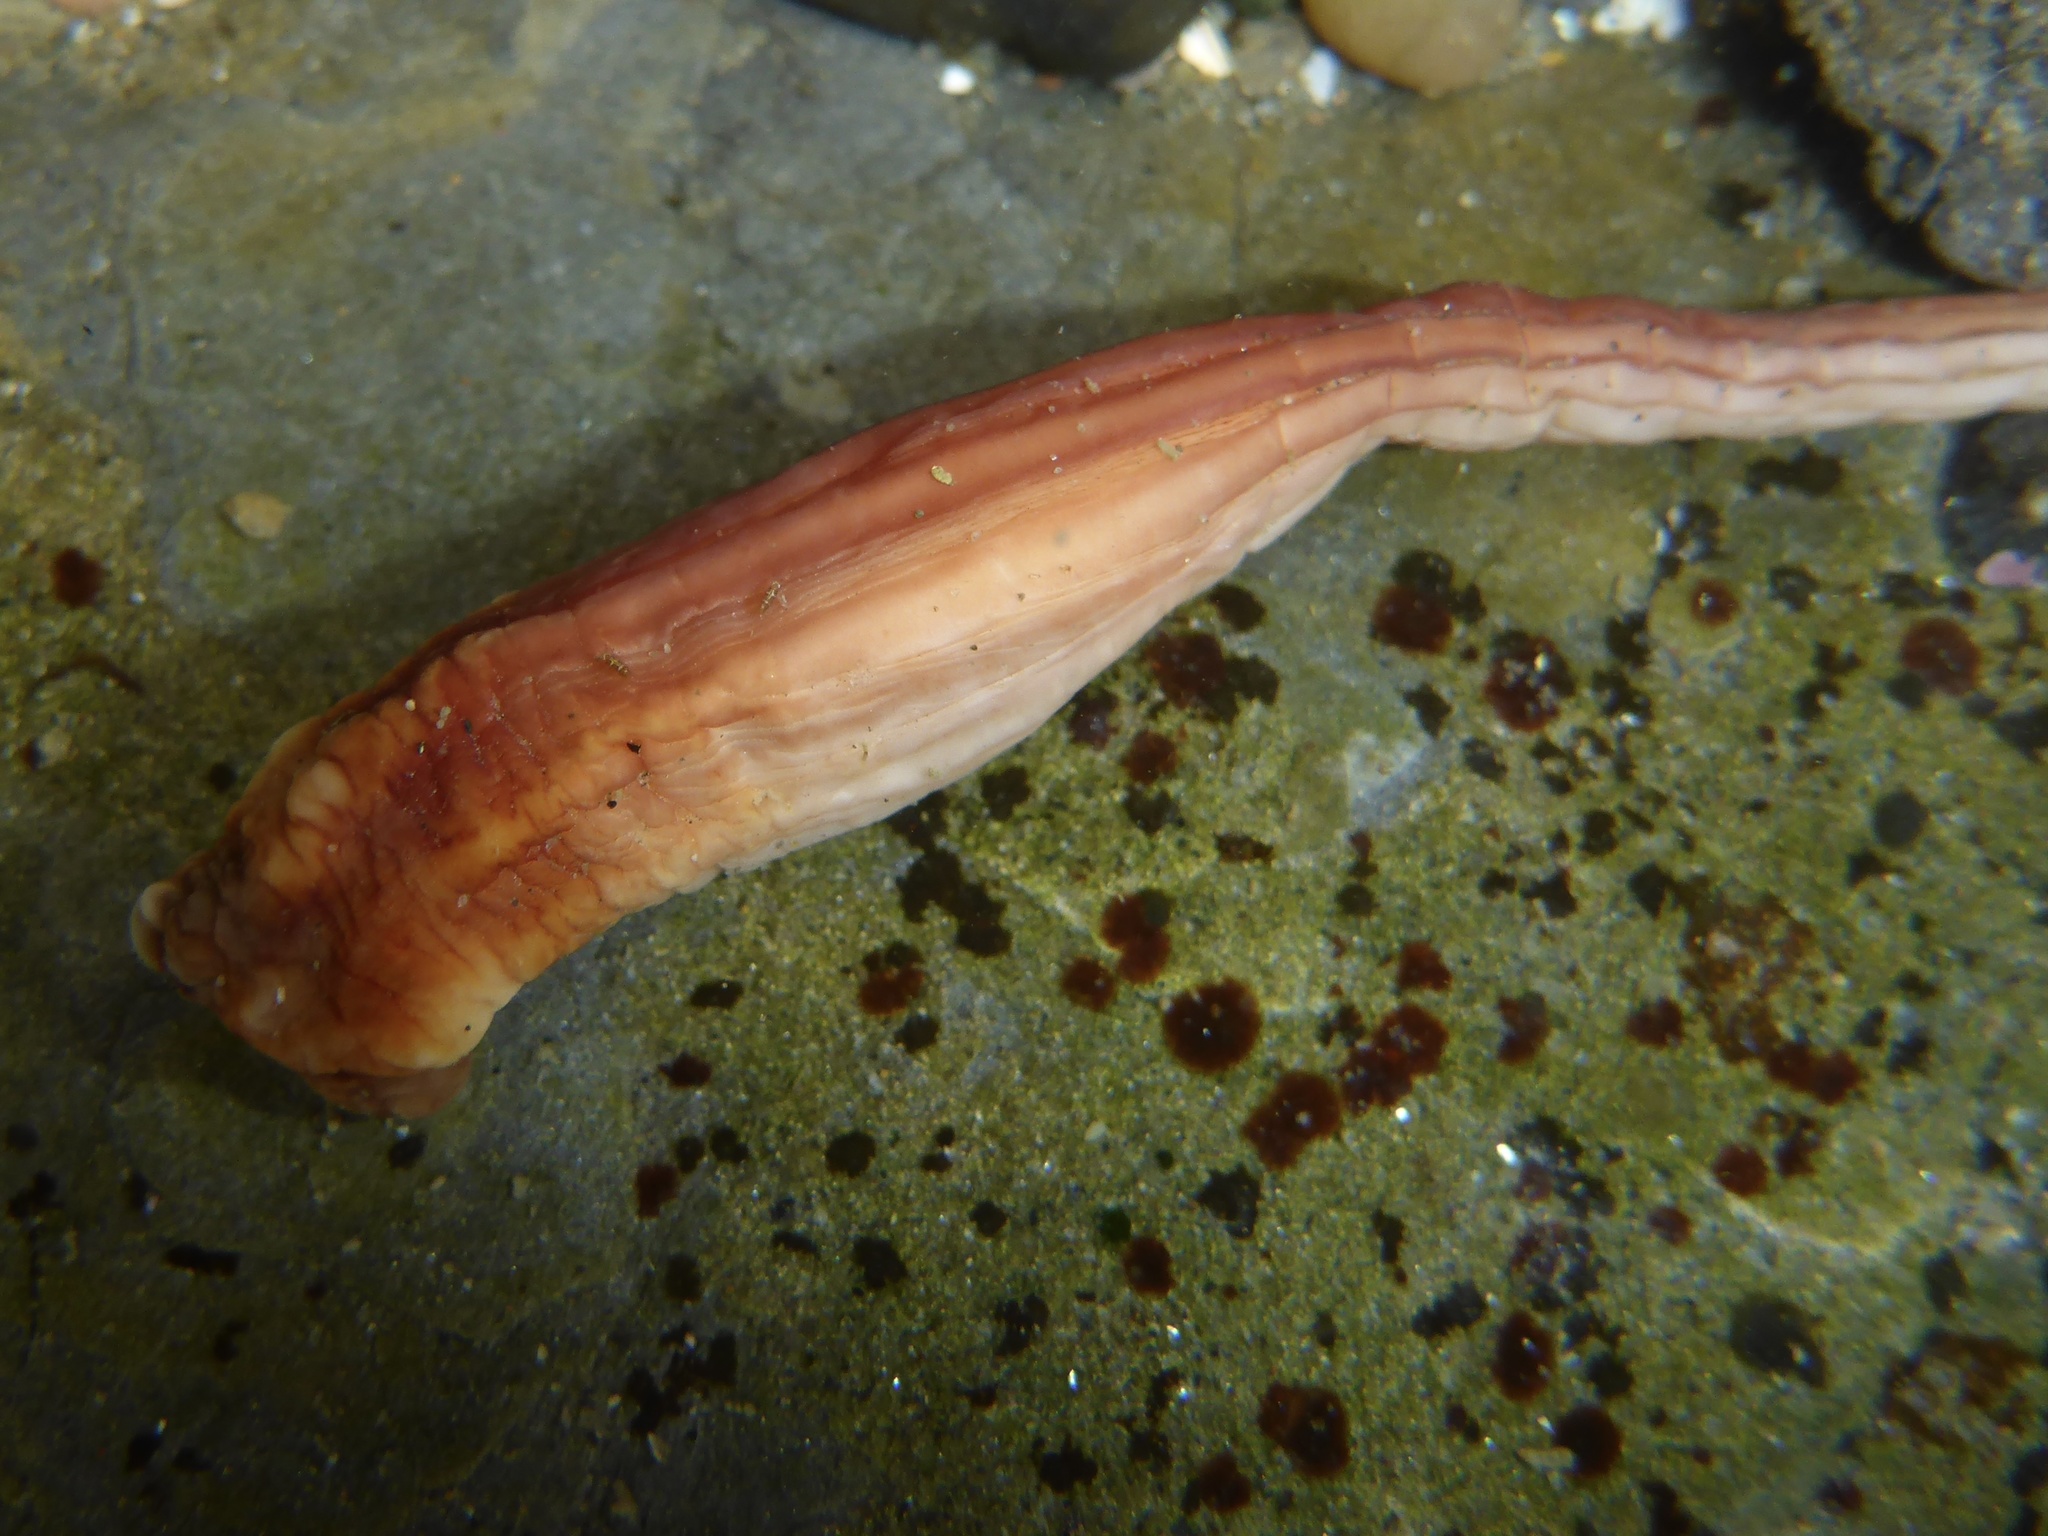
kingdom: Animalia
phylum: Chordata
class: Ascidiacea
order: Stolidobranchia
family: Styelidae
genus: Styela
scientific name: Styela montereyensis
